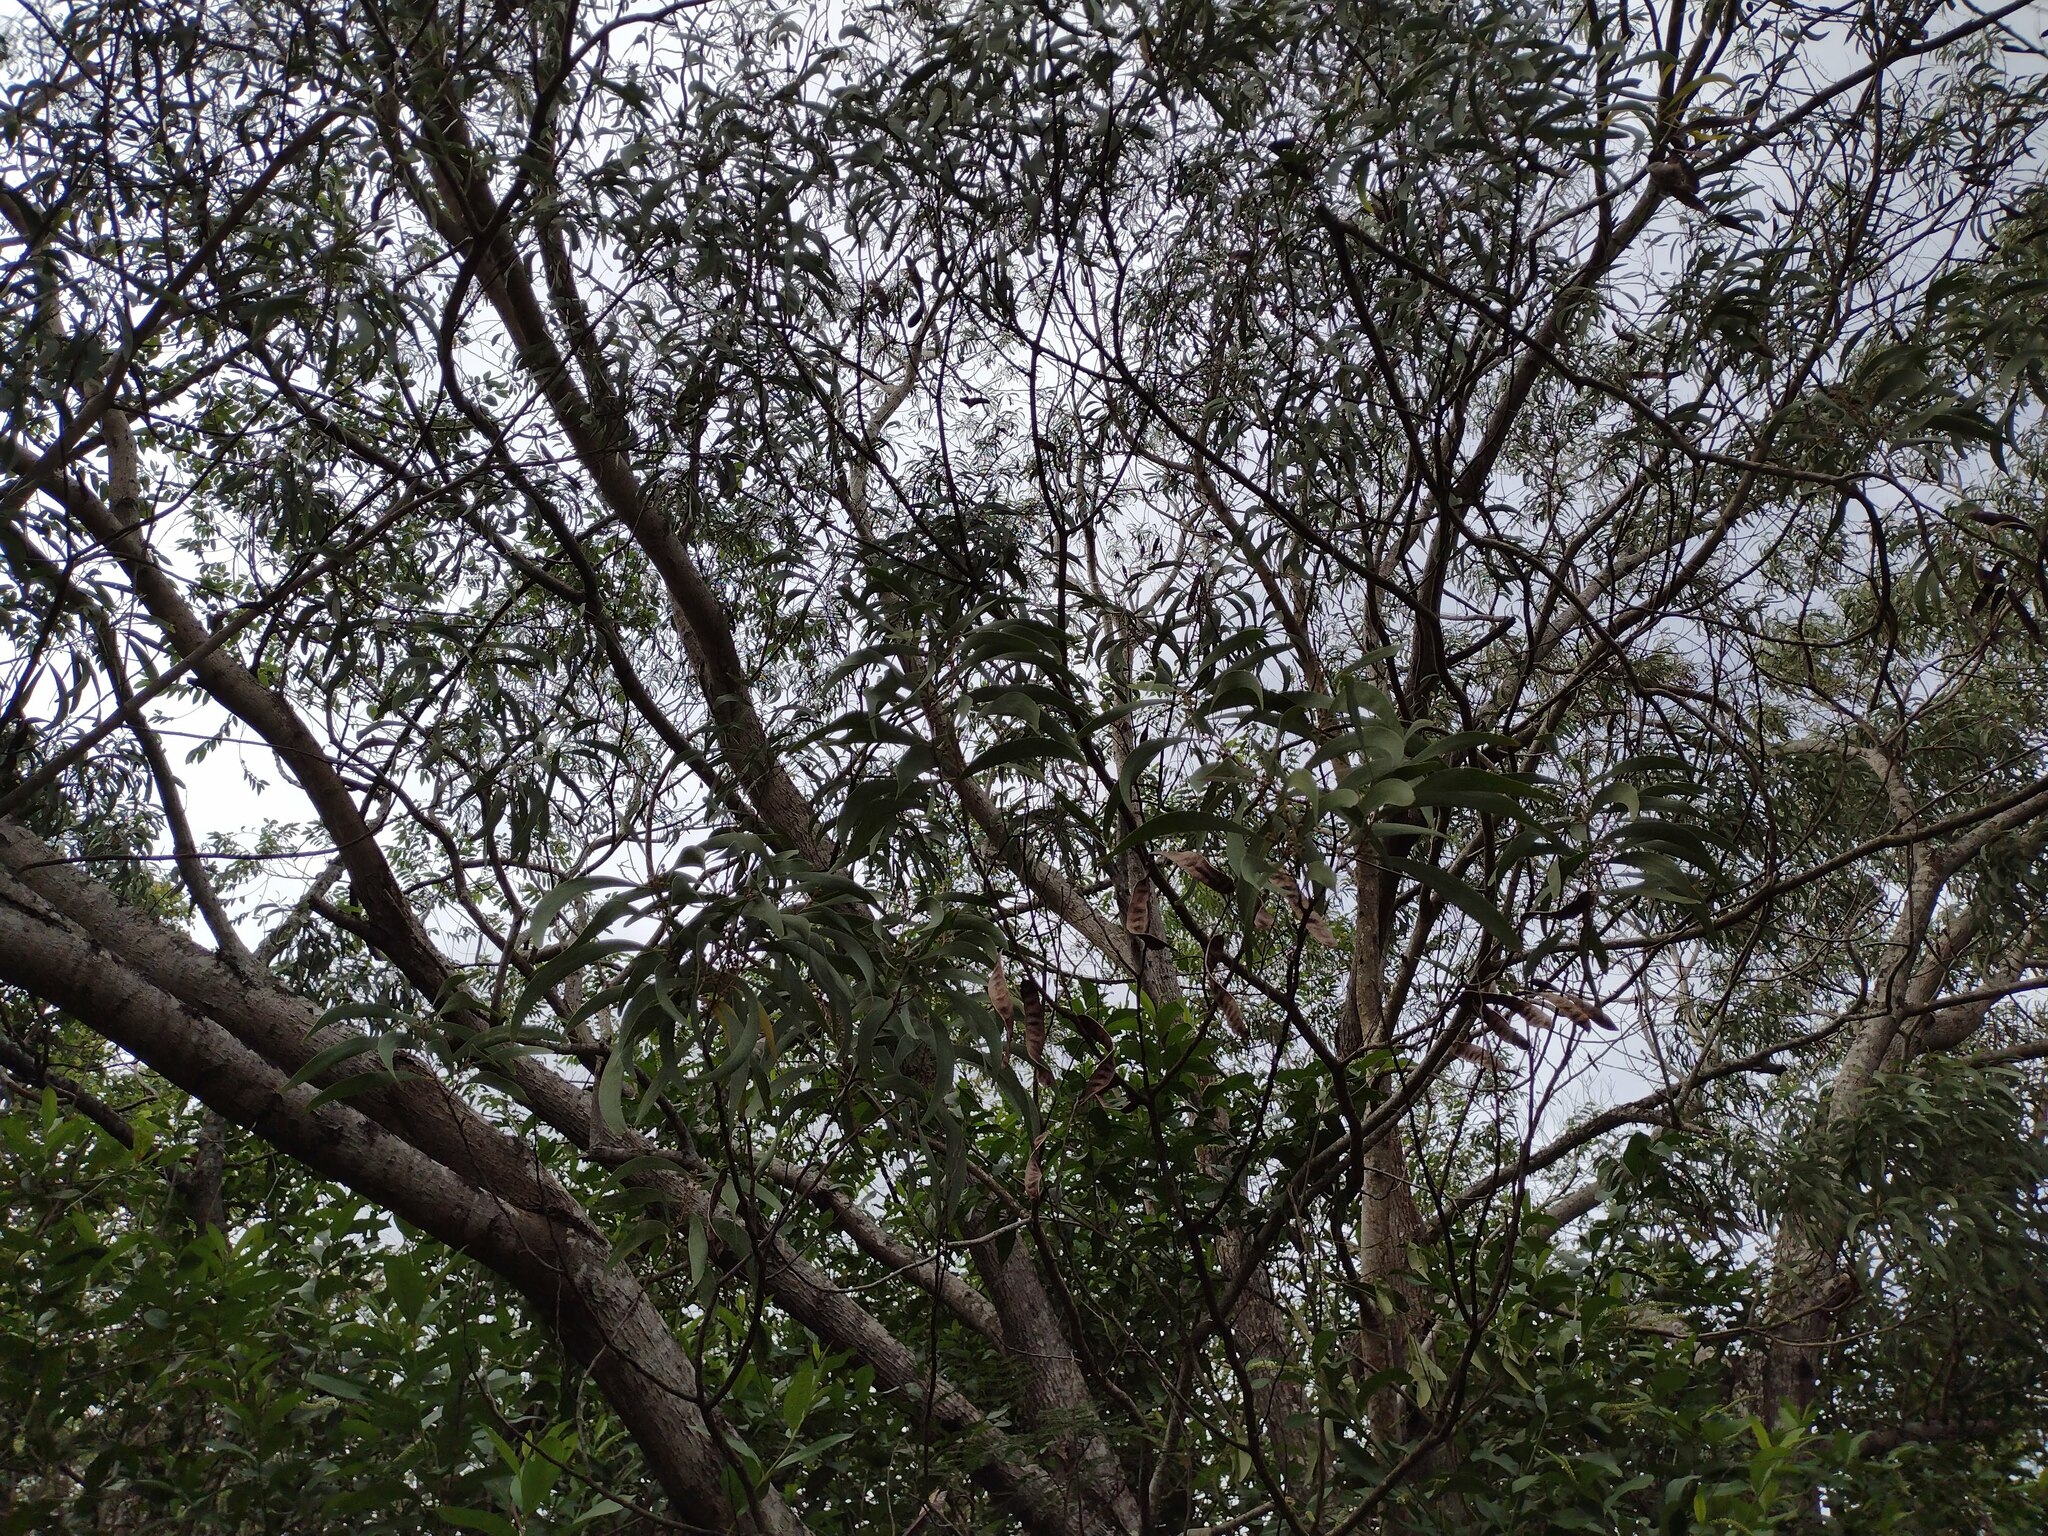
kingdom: Plantae
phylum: Tracheophyta
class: Magnoliopsida
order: Fabales
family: Fabaceae
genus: Acacia
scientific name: Acacia koa
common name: Gray koa
